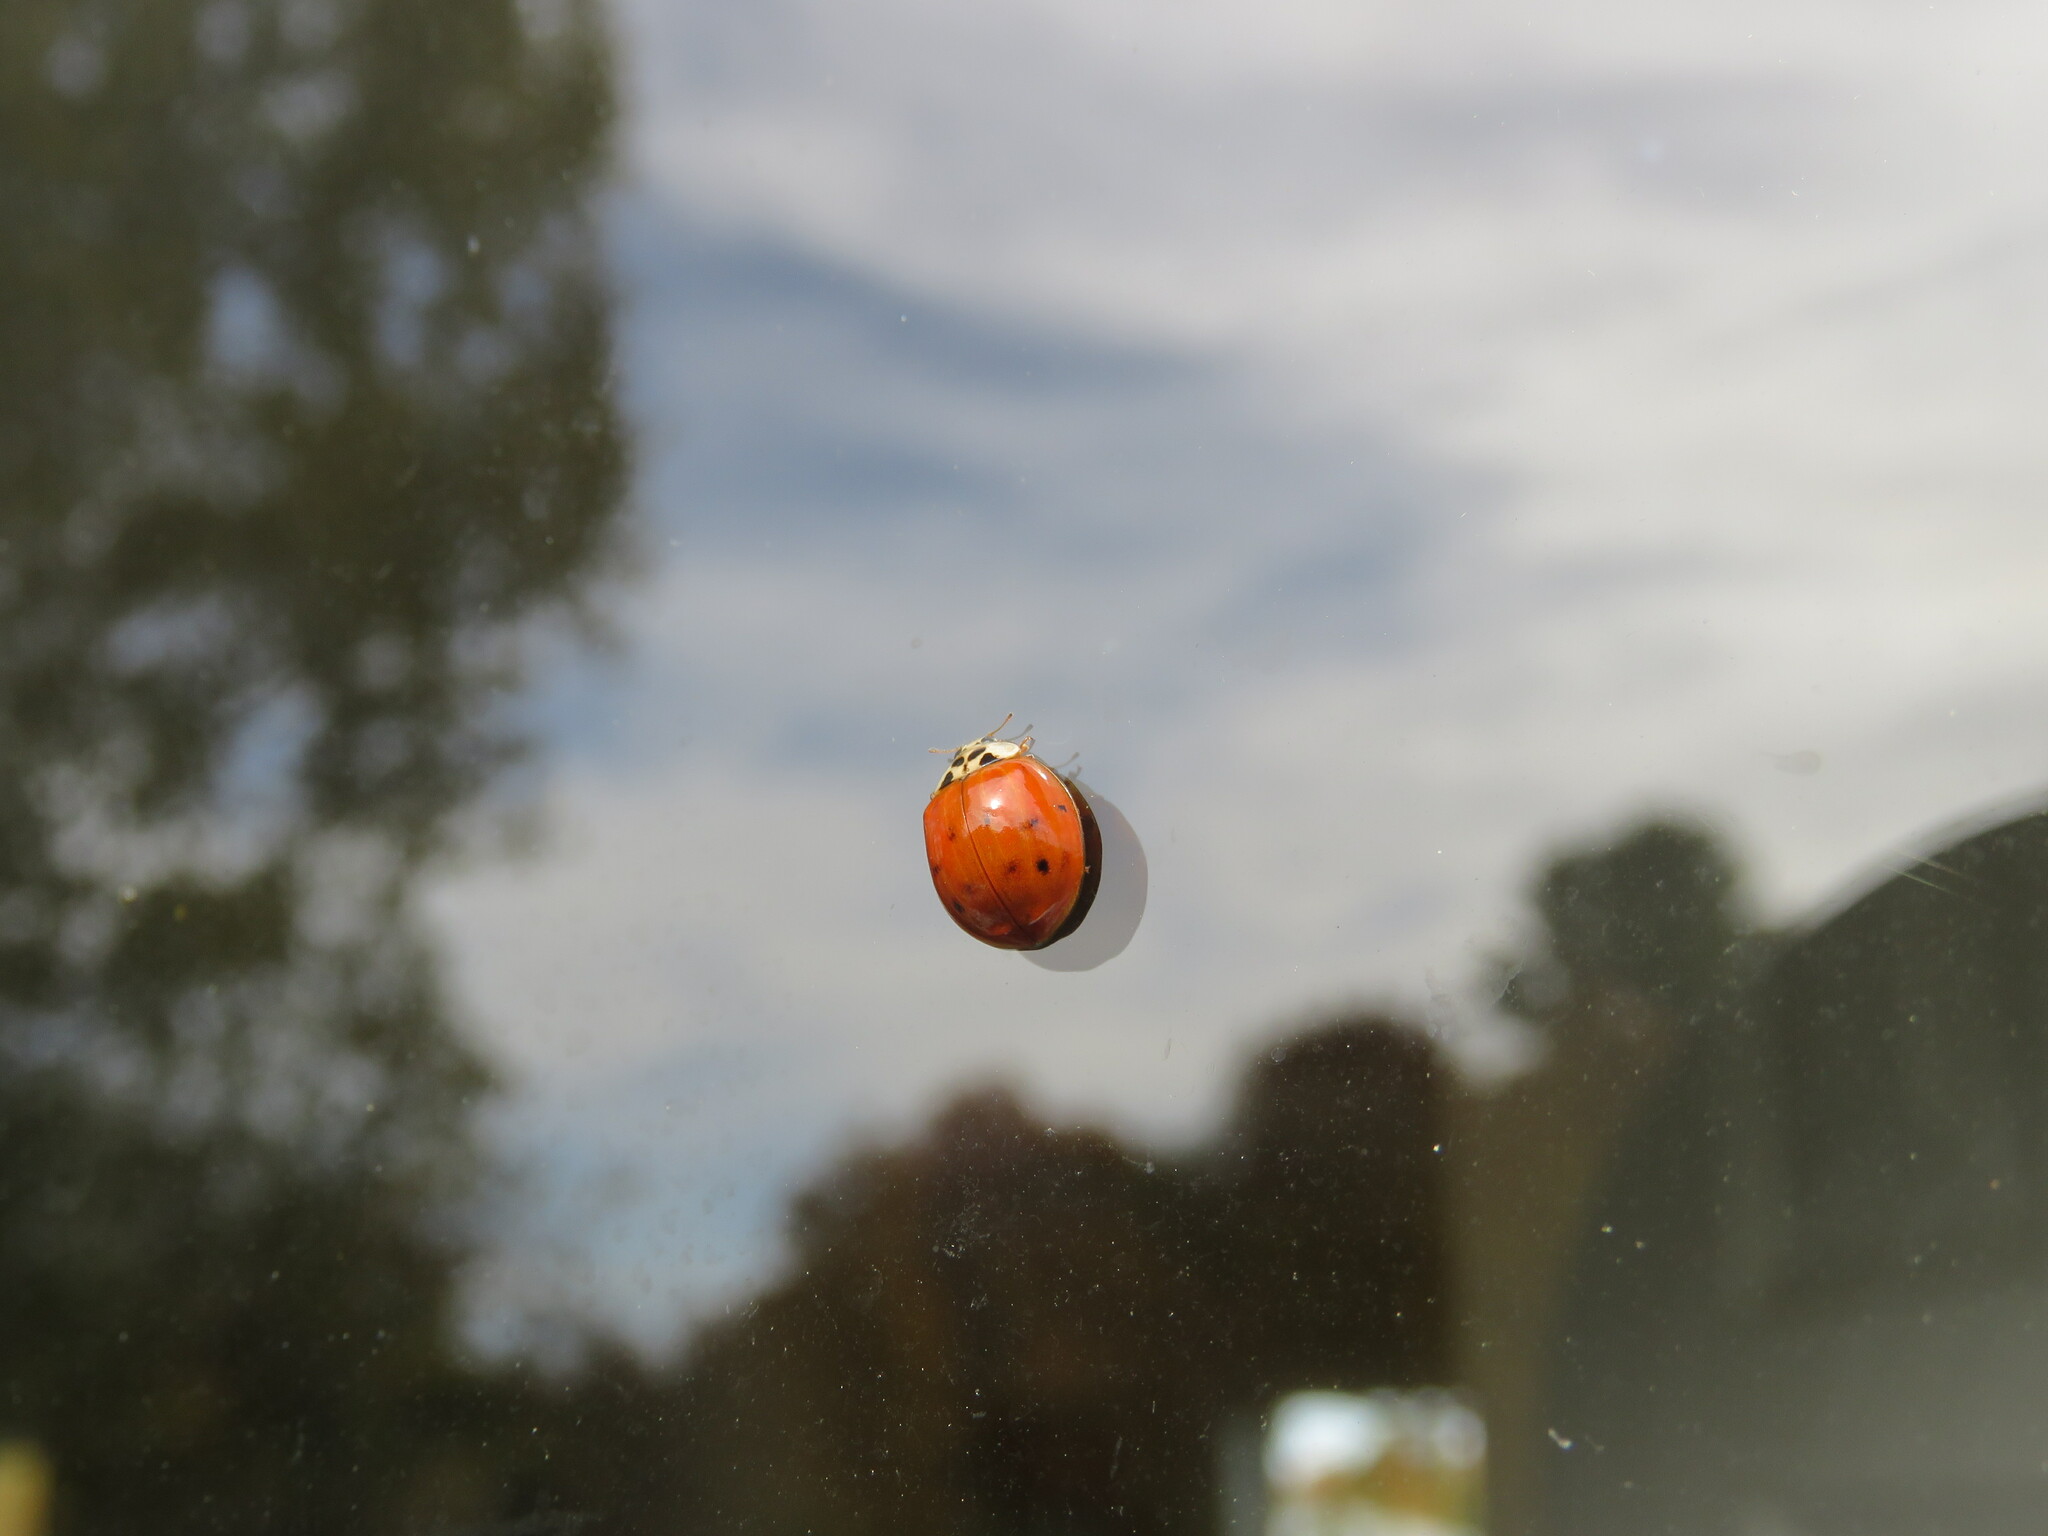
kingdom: Animalia
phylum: Arthropoda
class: Insecta
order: Coleoptera
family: Coccinellidae
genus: Harmonia
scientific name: Harmonia axyridis
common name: Harlequin ladybird
